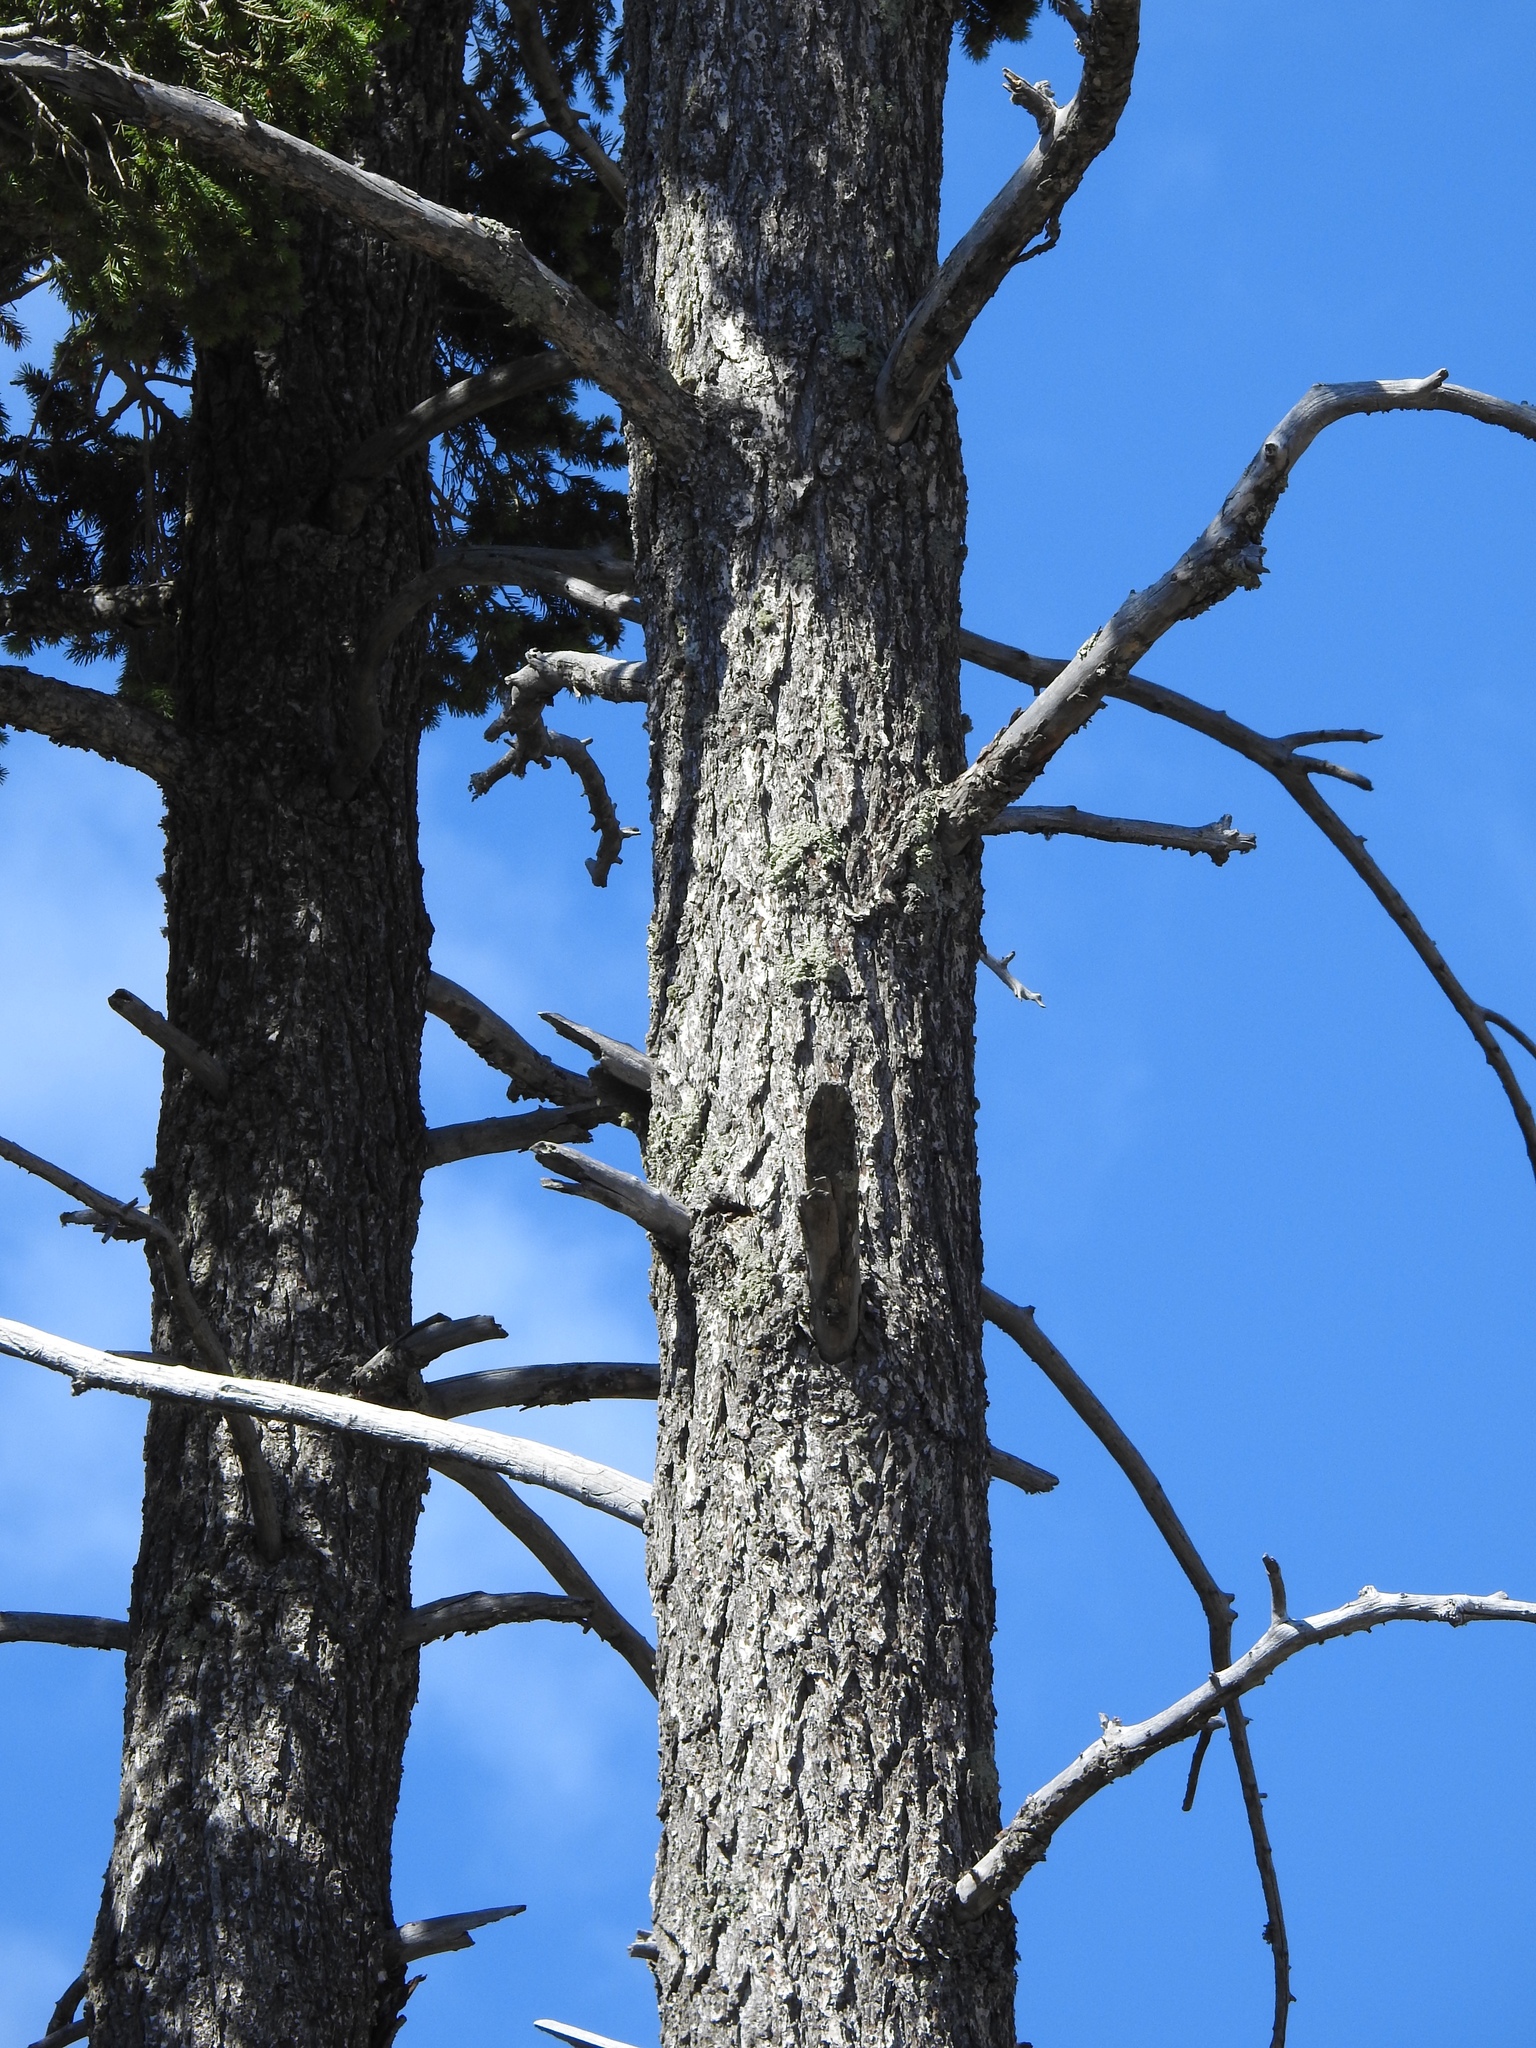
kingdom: Plantae
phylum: Tracheophyta
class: Pinopsida
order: Pinales
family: Pinaceae
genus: Pseudotsuga
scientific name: Pseudotsuga menziesii
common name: Douglas fir
